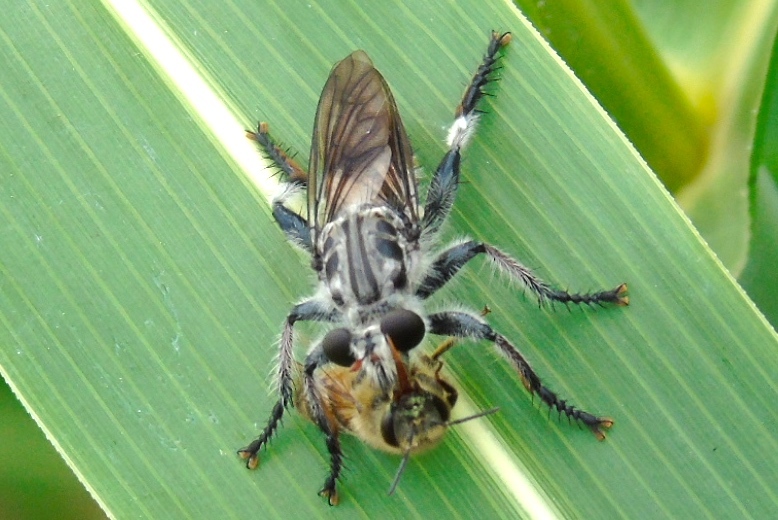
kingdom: Animalia
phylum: Arthropoda
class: Insecta
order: Diptera
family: Asilidae
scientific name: Asilidae
